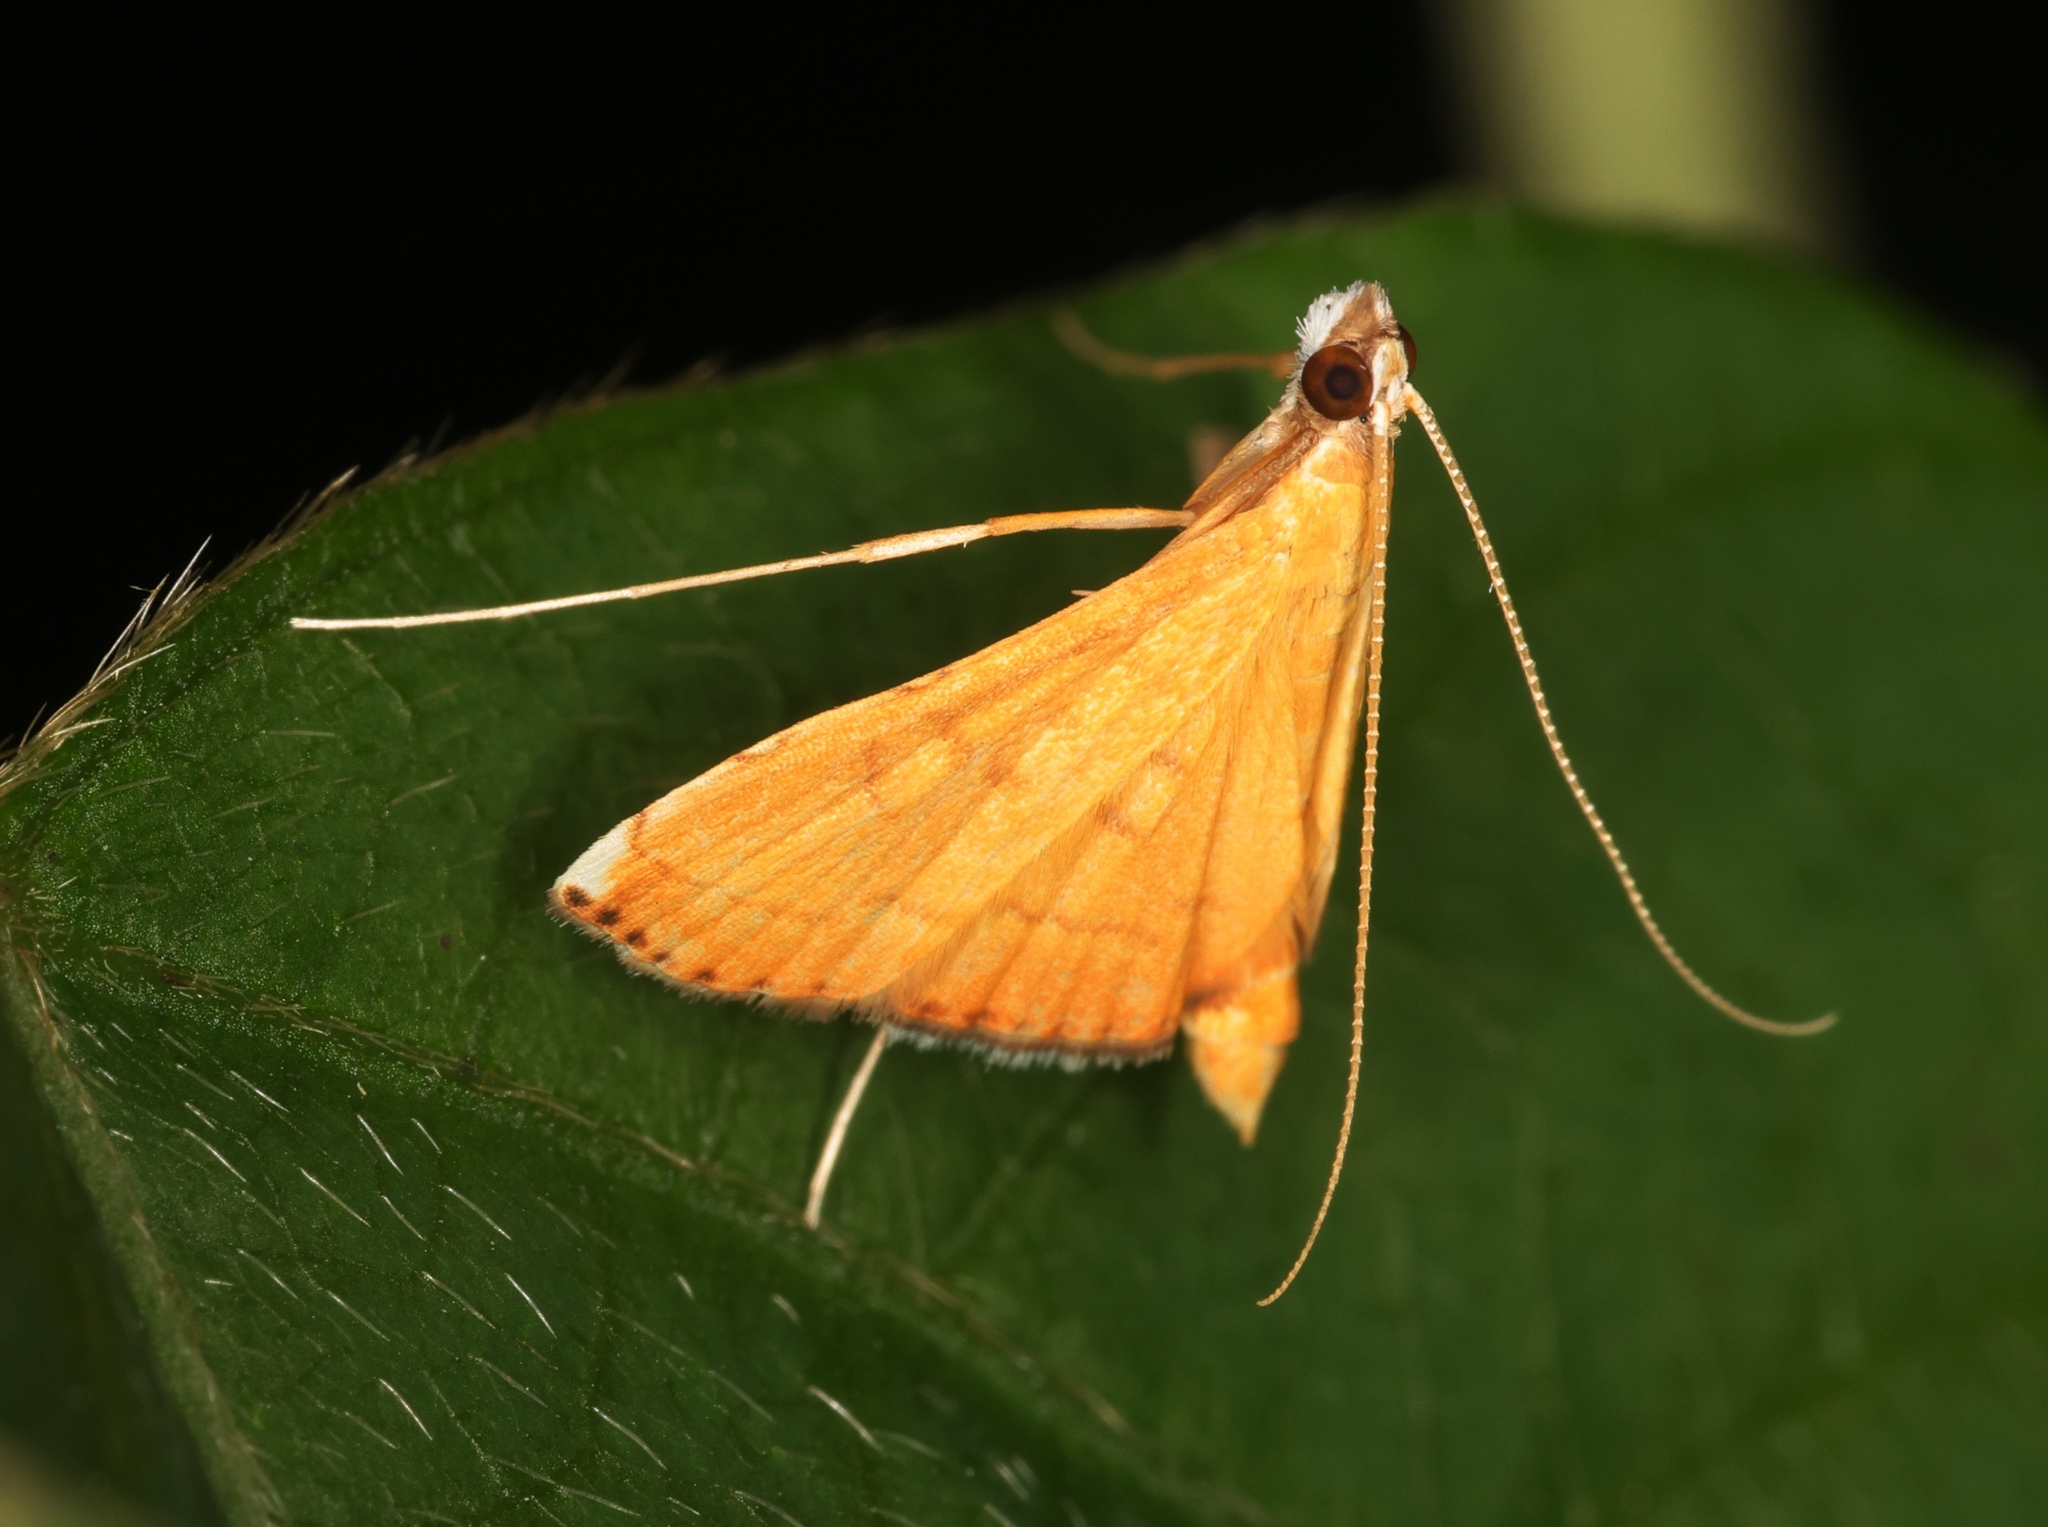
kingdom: Animalia
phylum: Arthropoda
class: Insecta
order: Lepidoptera
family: Crambidae
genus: Mabra
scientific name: Mabra nigriscripta
